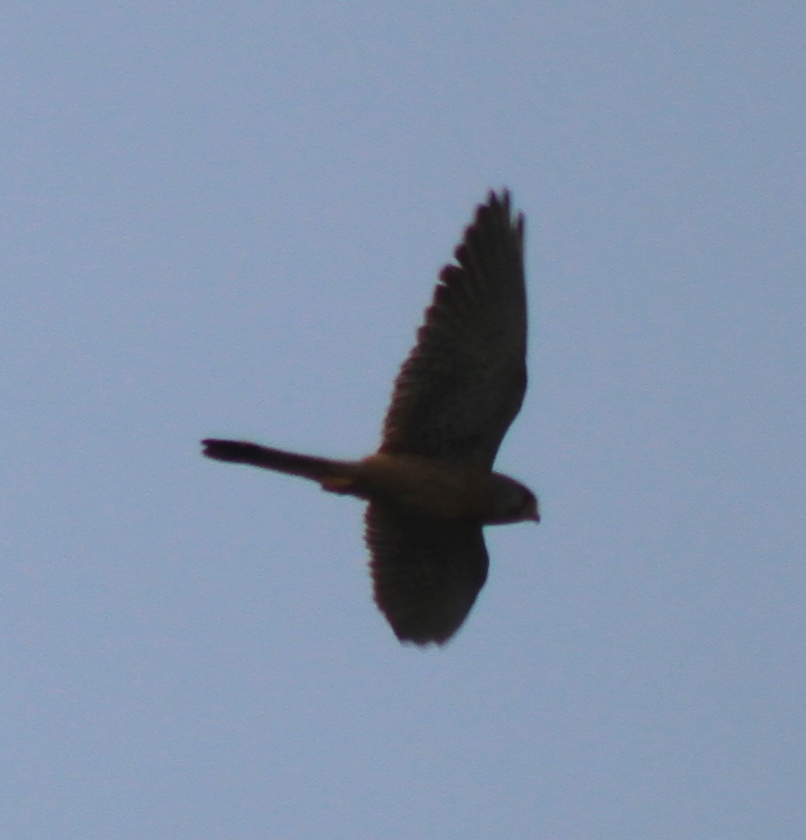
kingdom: Animalia
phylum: Chordata
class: Aves
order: Falconiformes
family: Falconidae
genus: Falco
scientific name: Falco tinnunculus
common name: Common kestrel
